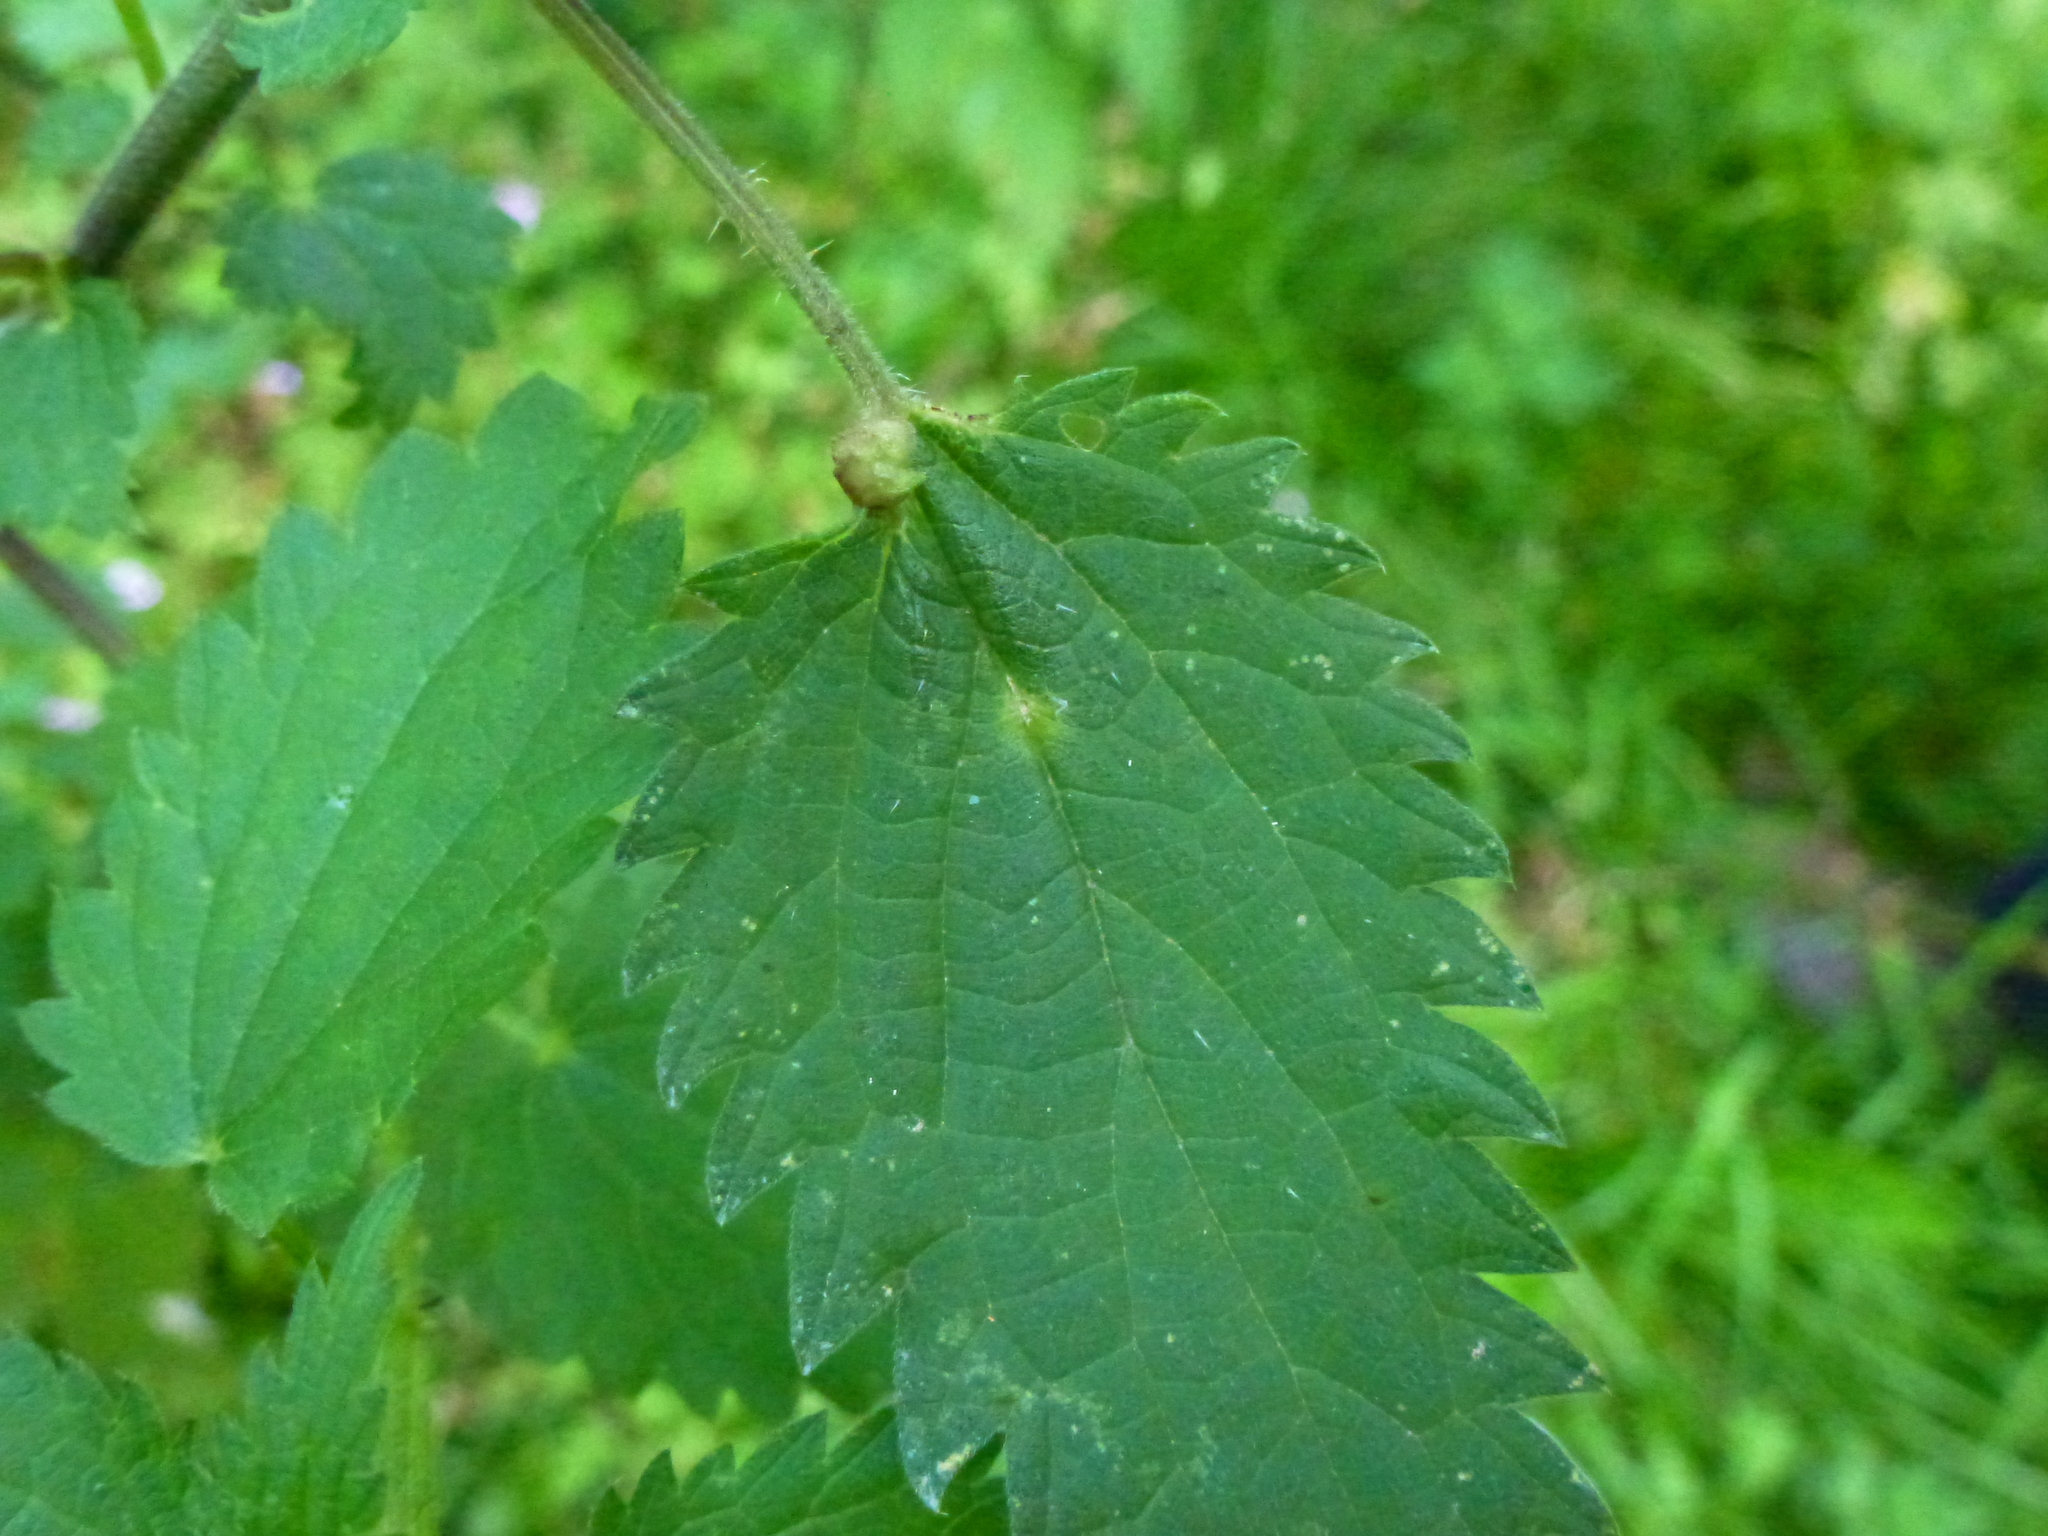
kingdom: Animalia
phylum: Arthropoda
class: Insecta
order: Diptera
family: Cecidomyiidae
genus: Dasineura
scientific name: Dasineura urticae
